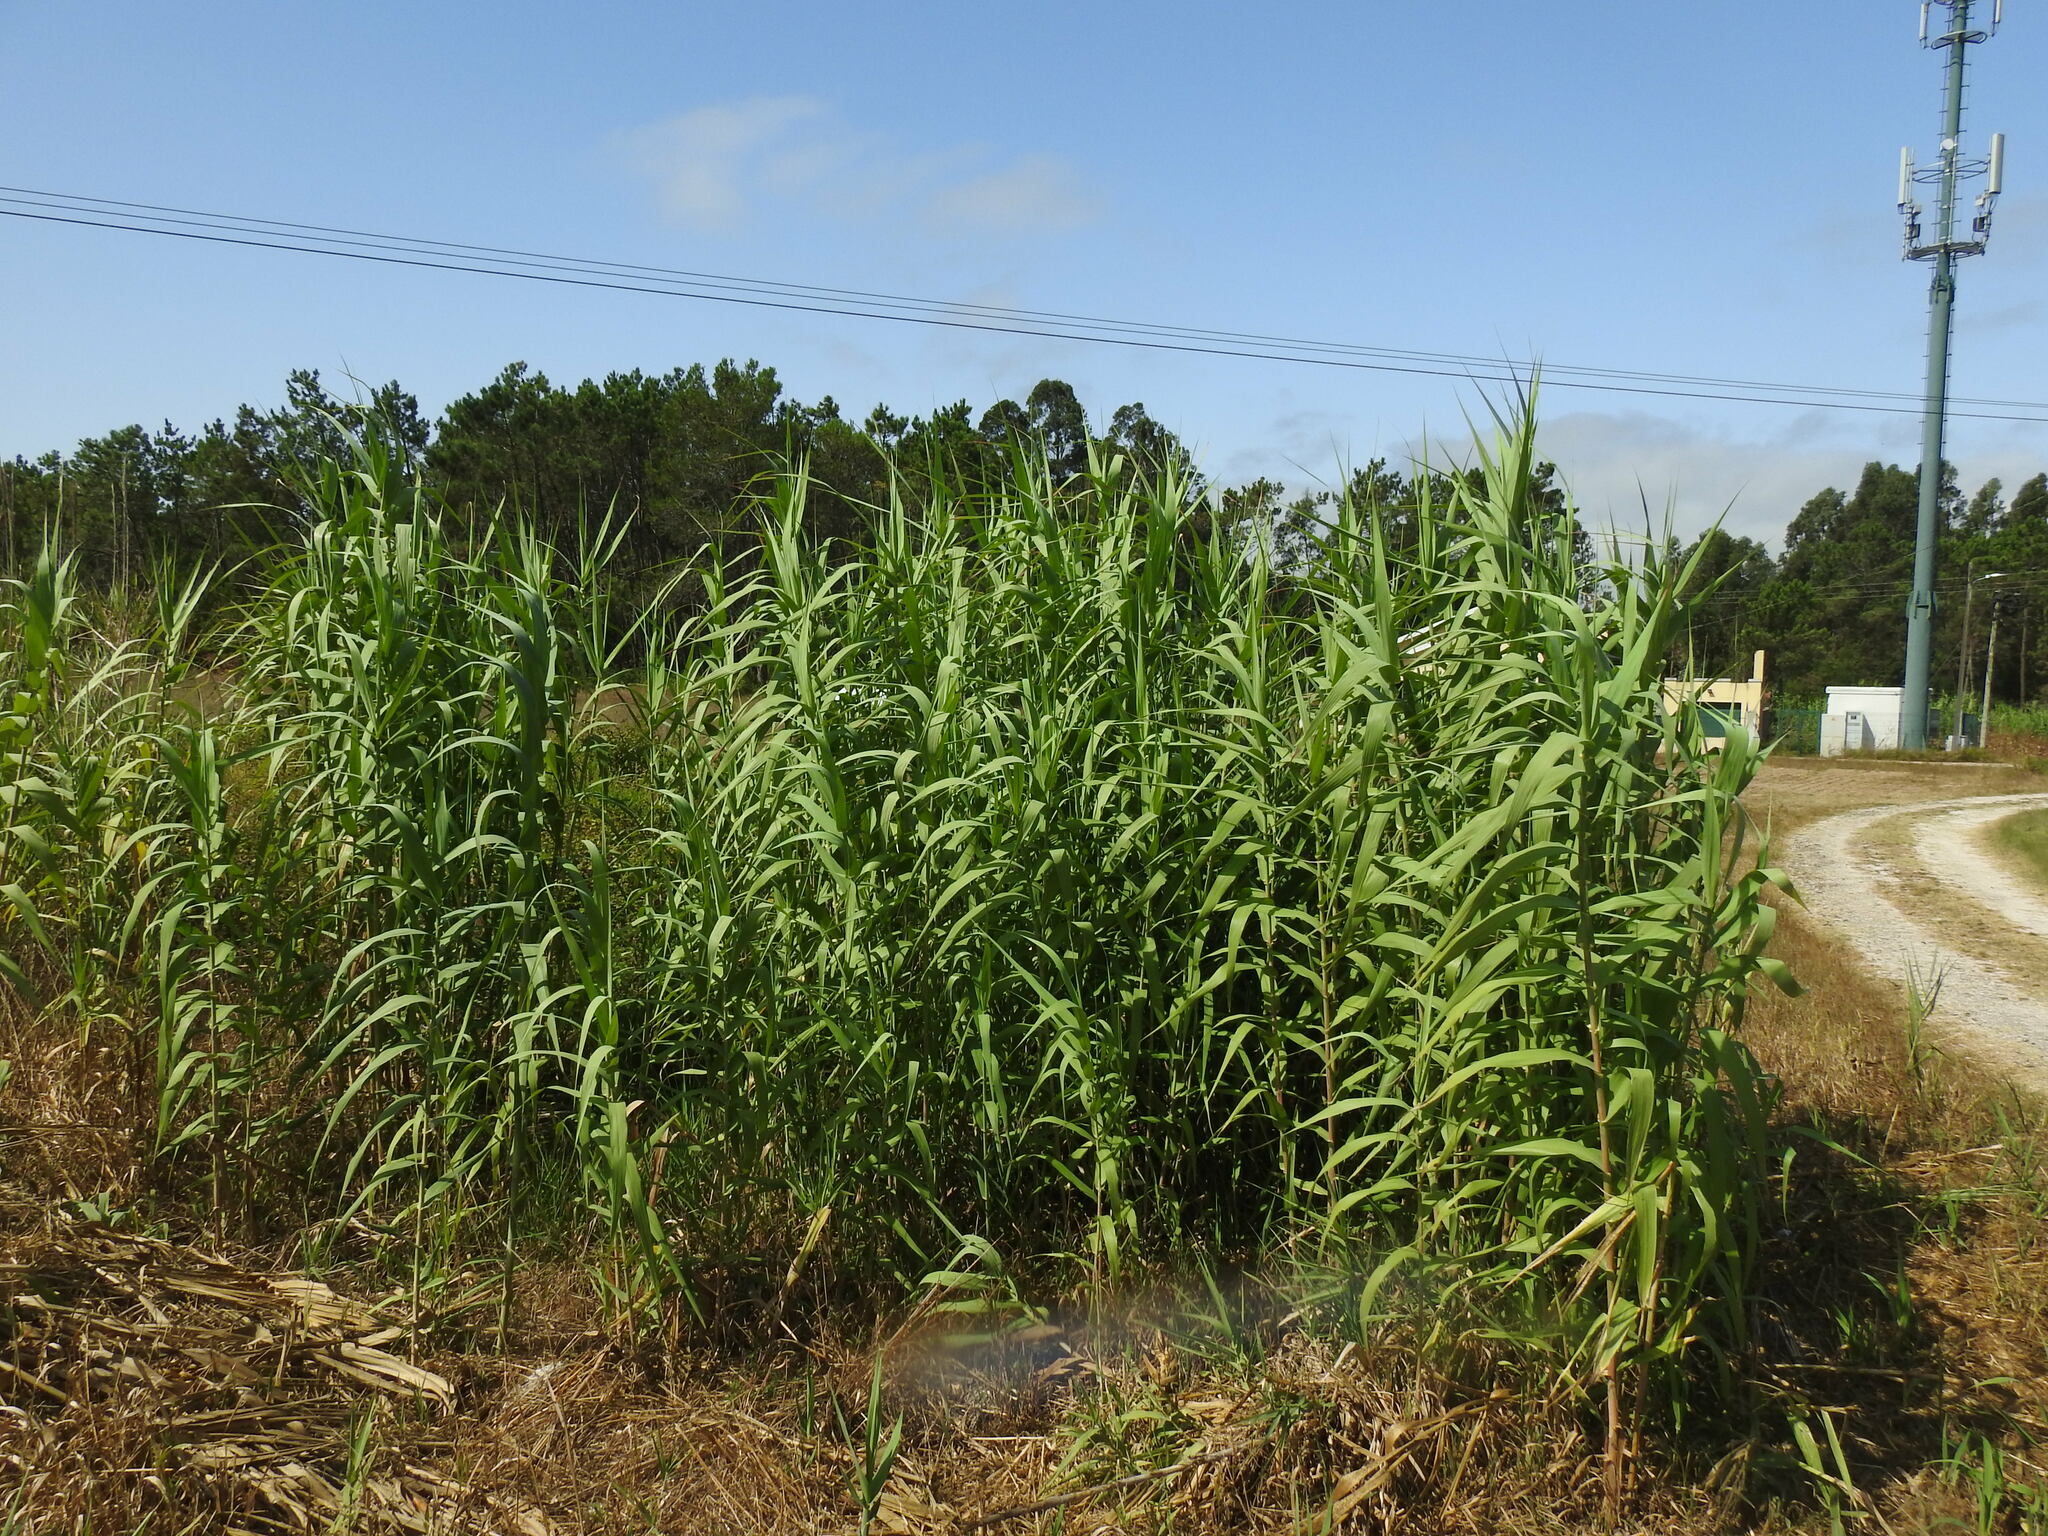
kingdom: Plantae
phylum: Tracheophyta
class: Liliopsida
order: Poales
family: Poaceae
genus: Arundo
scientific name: Arundo donax
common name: Giant reed
